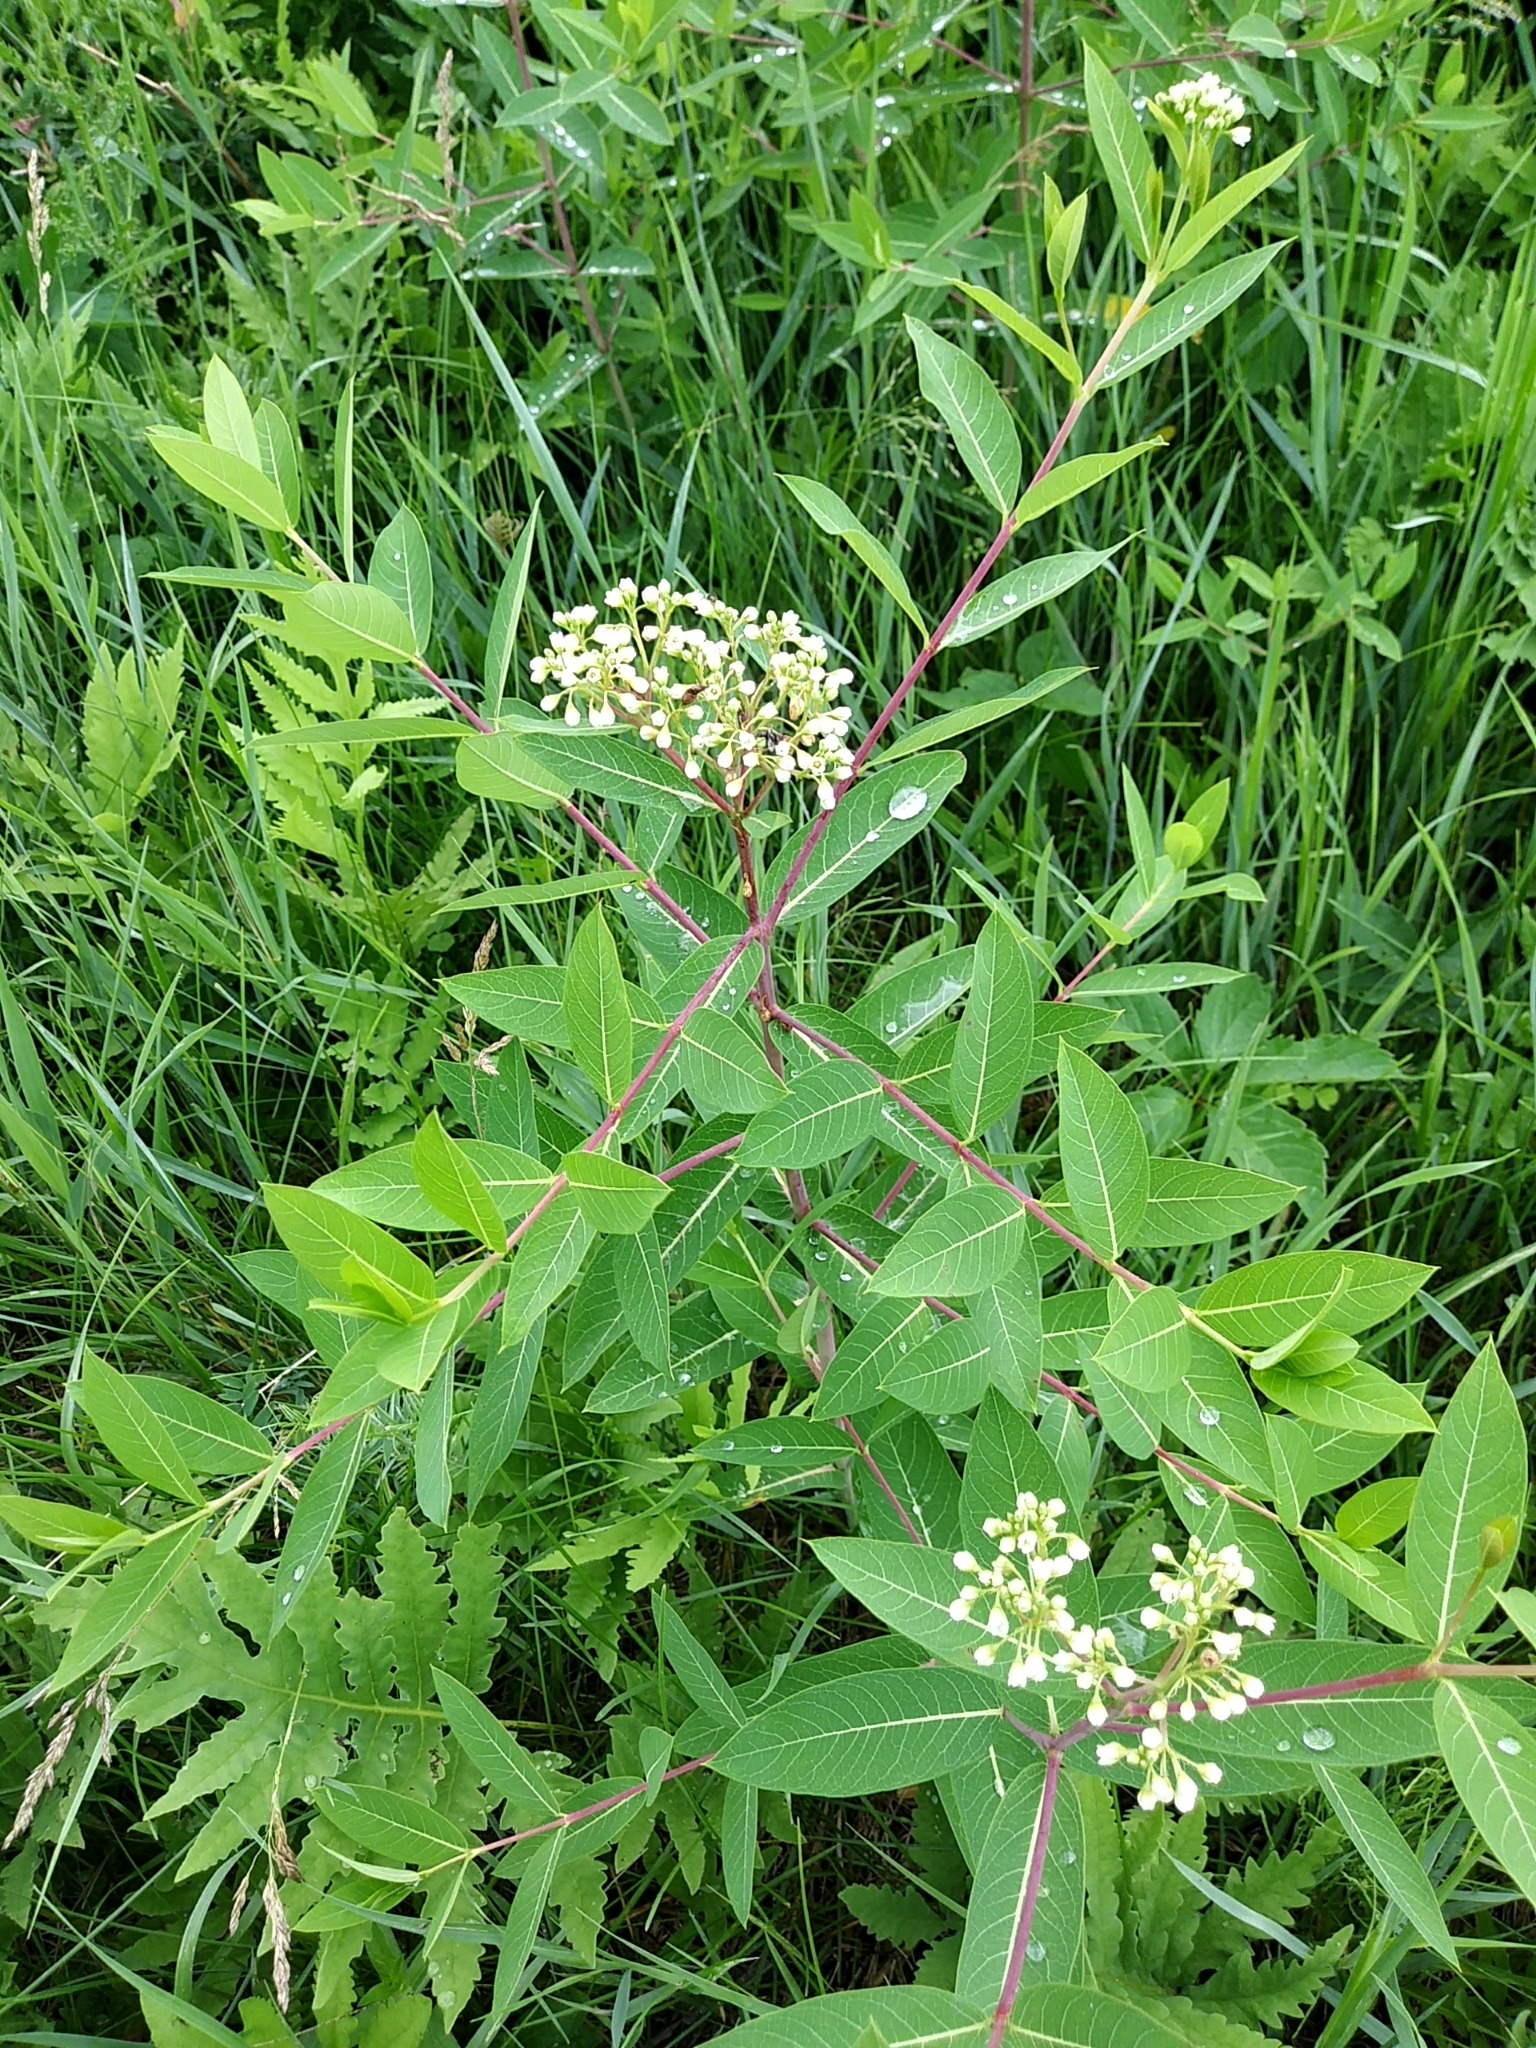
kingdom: Plantae
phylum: Tracheophyta
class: Magnoliopsida
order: Gentianales
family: Apocynaceae
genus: Apocynum
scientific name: Apocynum cannabinum
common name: Hemp dogbane
